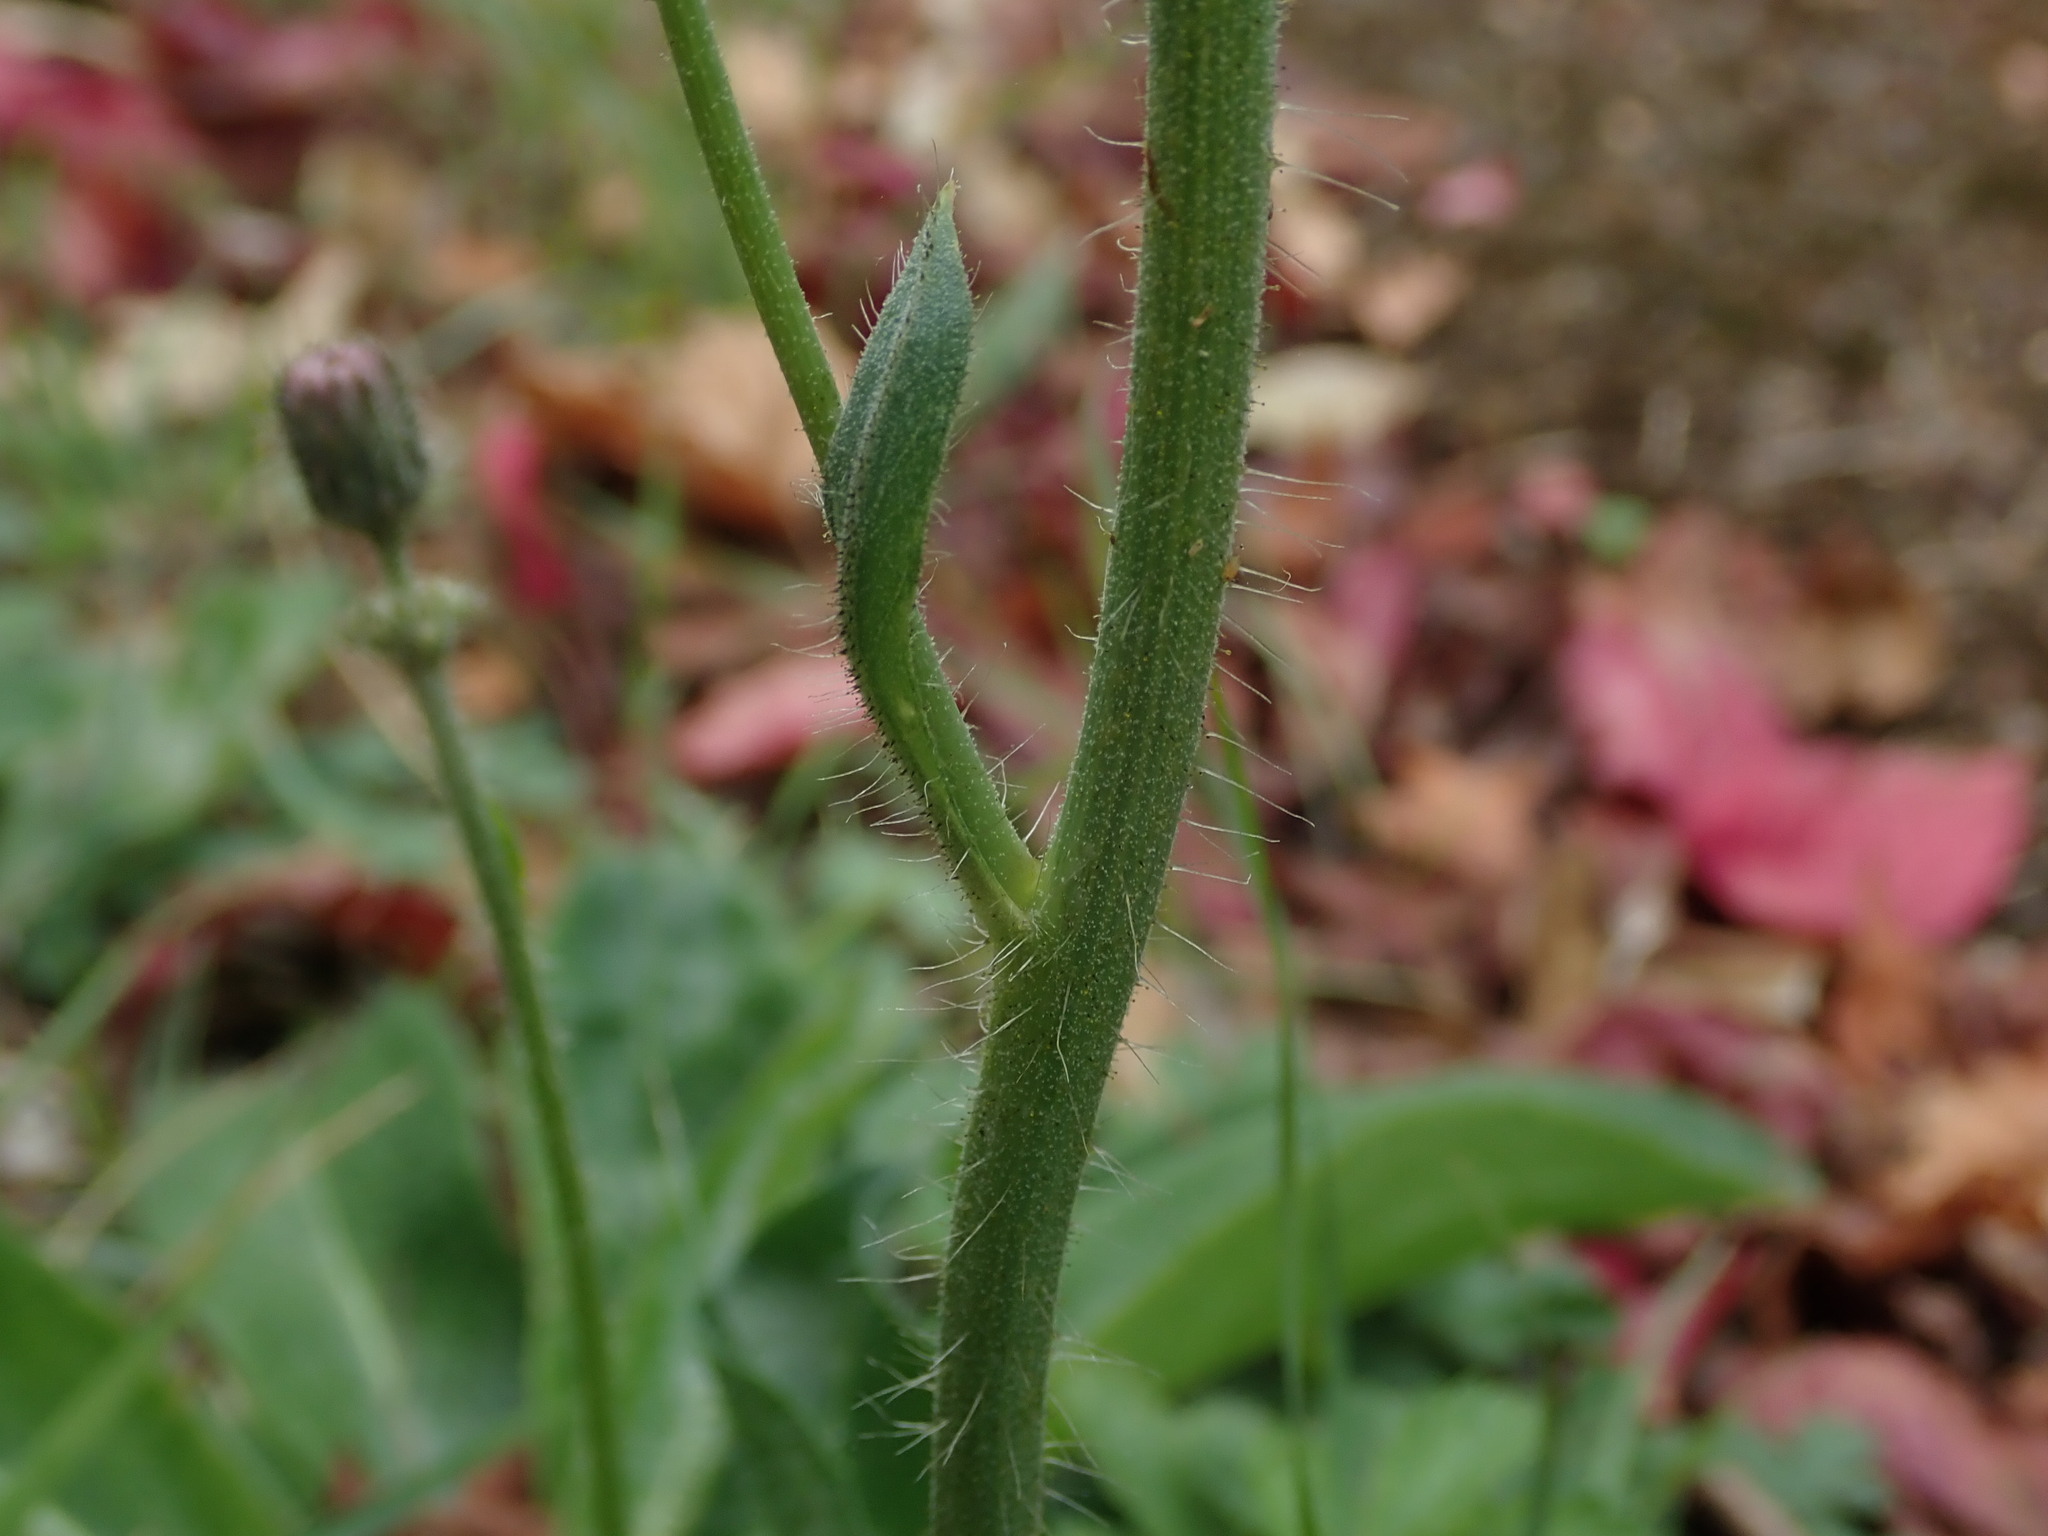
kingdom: Plantae
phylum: Tracheophyta
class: Magnoliopsida
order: Asterales
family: Asteraceae
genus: Pilosella
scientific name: Pilosella aurantiaca
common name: Fox-and-cubs
